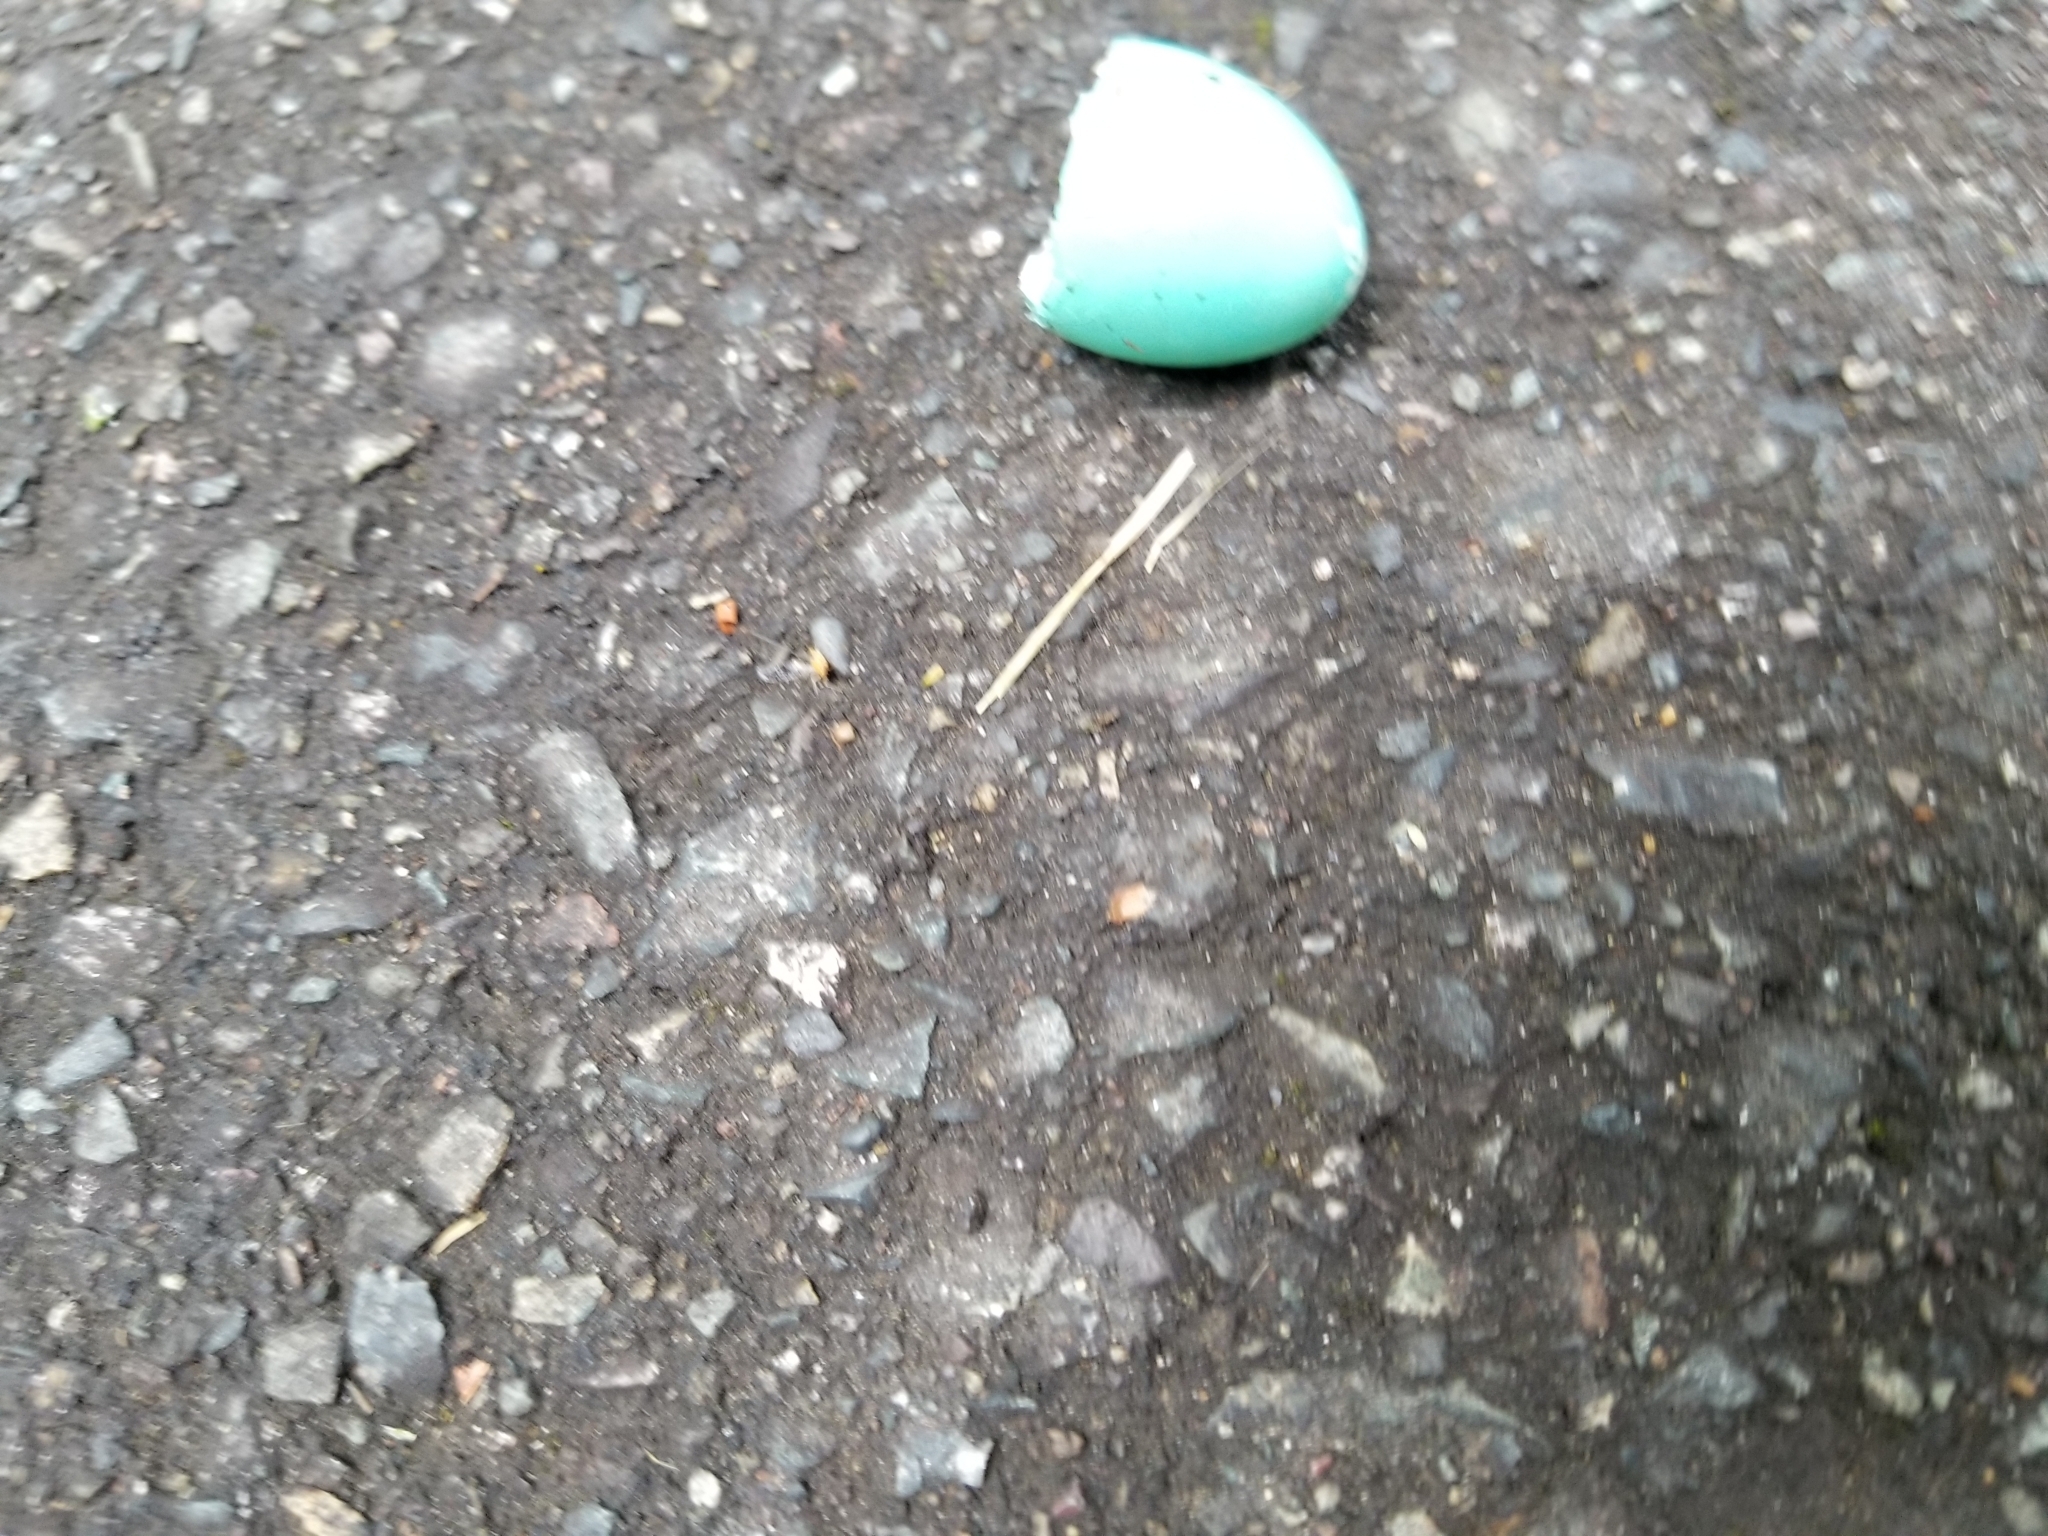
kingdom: Animalia
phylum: Chordata
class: Aves
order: Passeriformes
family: Turdidae
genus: Turdus
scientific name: Turdus migratorius
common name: American robin
